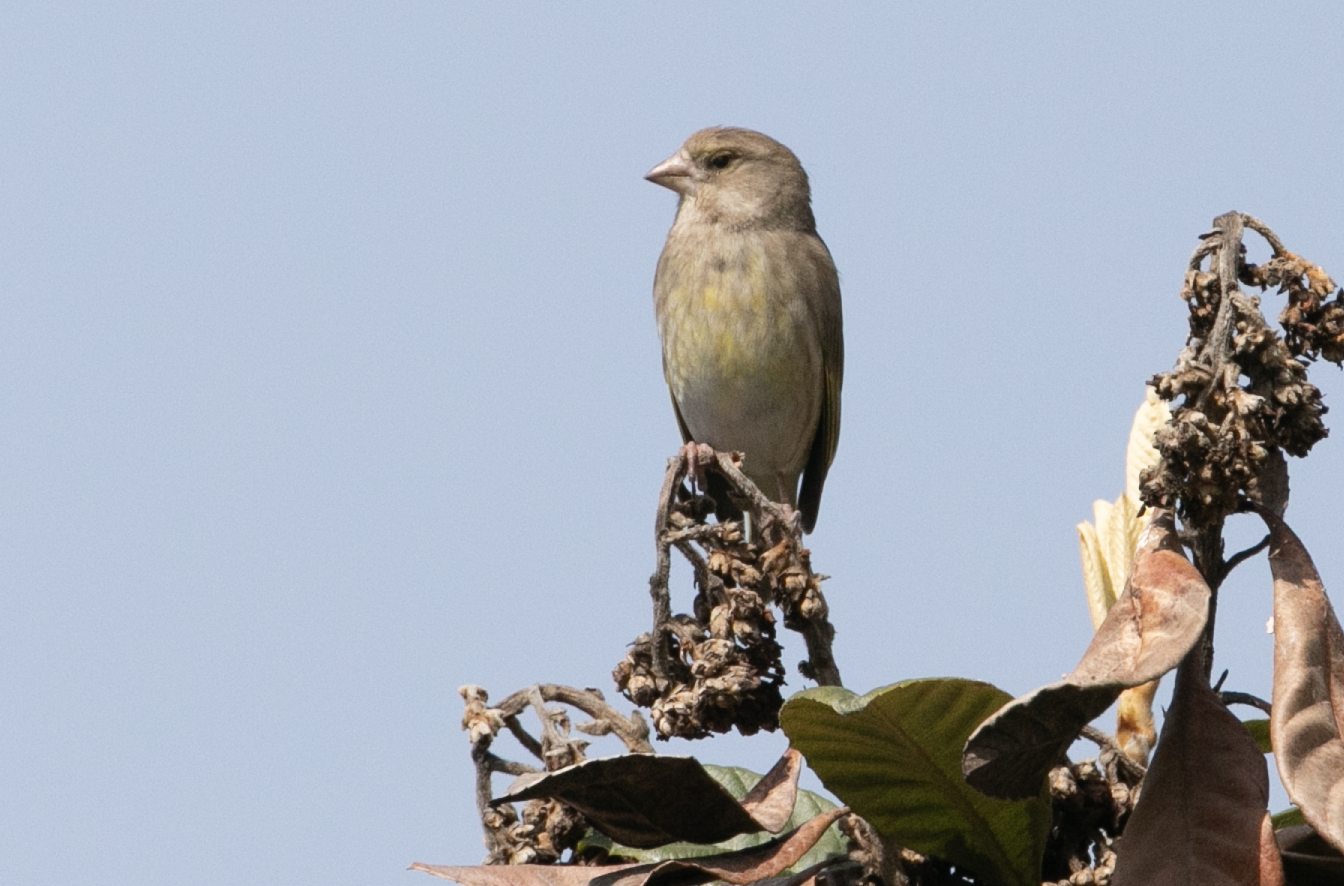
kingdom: Plantae
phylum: Tracheophyta
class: Liliopsida
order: Poales
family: Poaceae
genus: Chloris
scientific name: Chloris chloris
